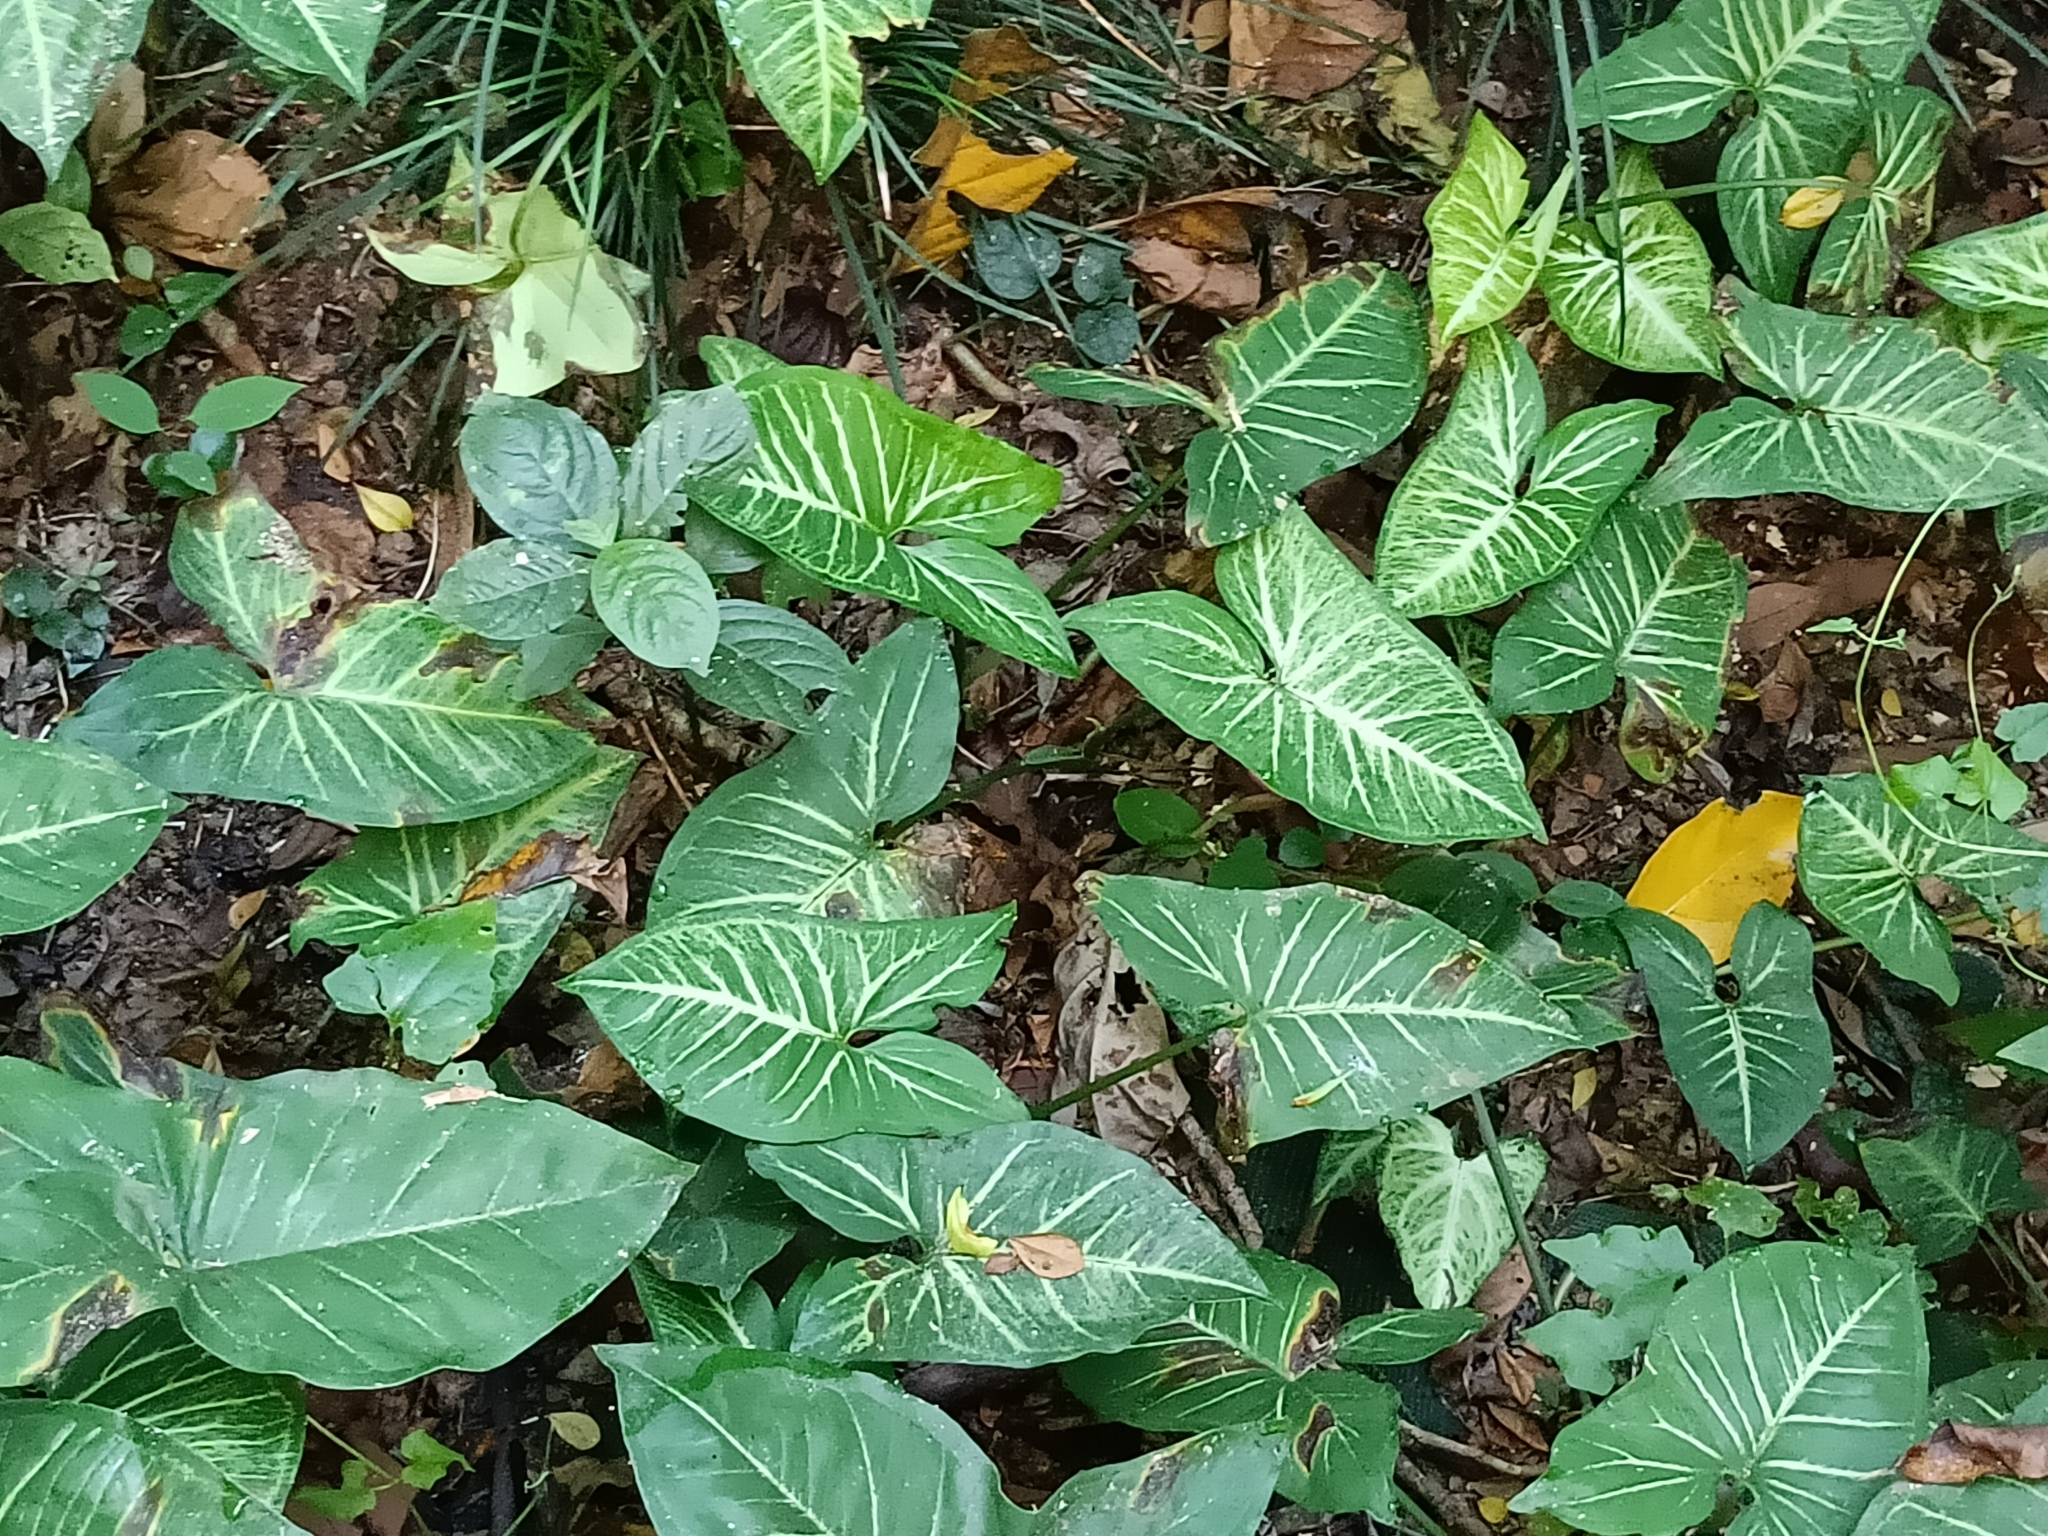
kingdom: Plantae
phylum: Tracheophyta
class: Liliopsida
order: Alismatales
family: Araceae
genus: Syngonium
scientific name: Syngonium podophyllum
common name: American evergreen
